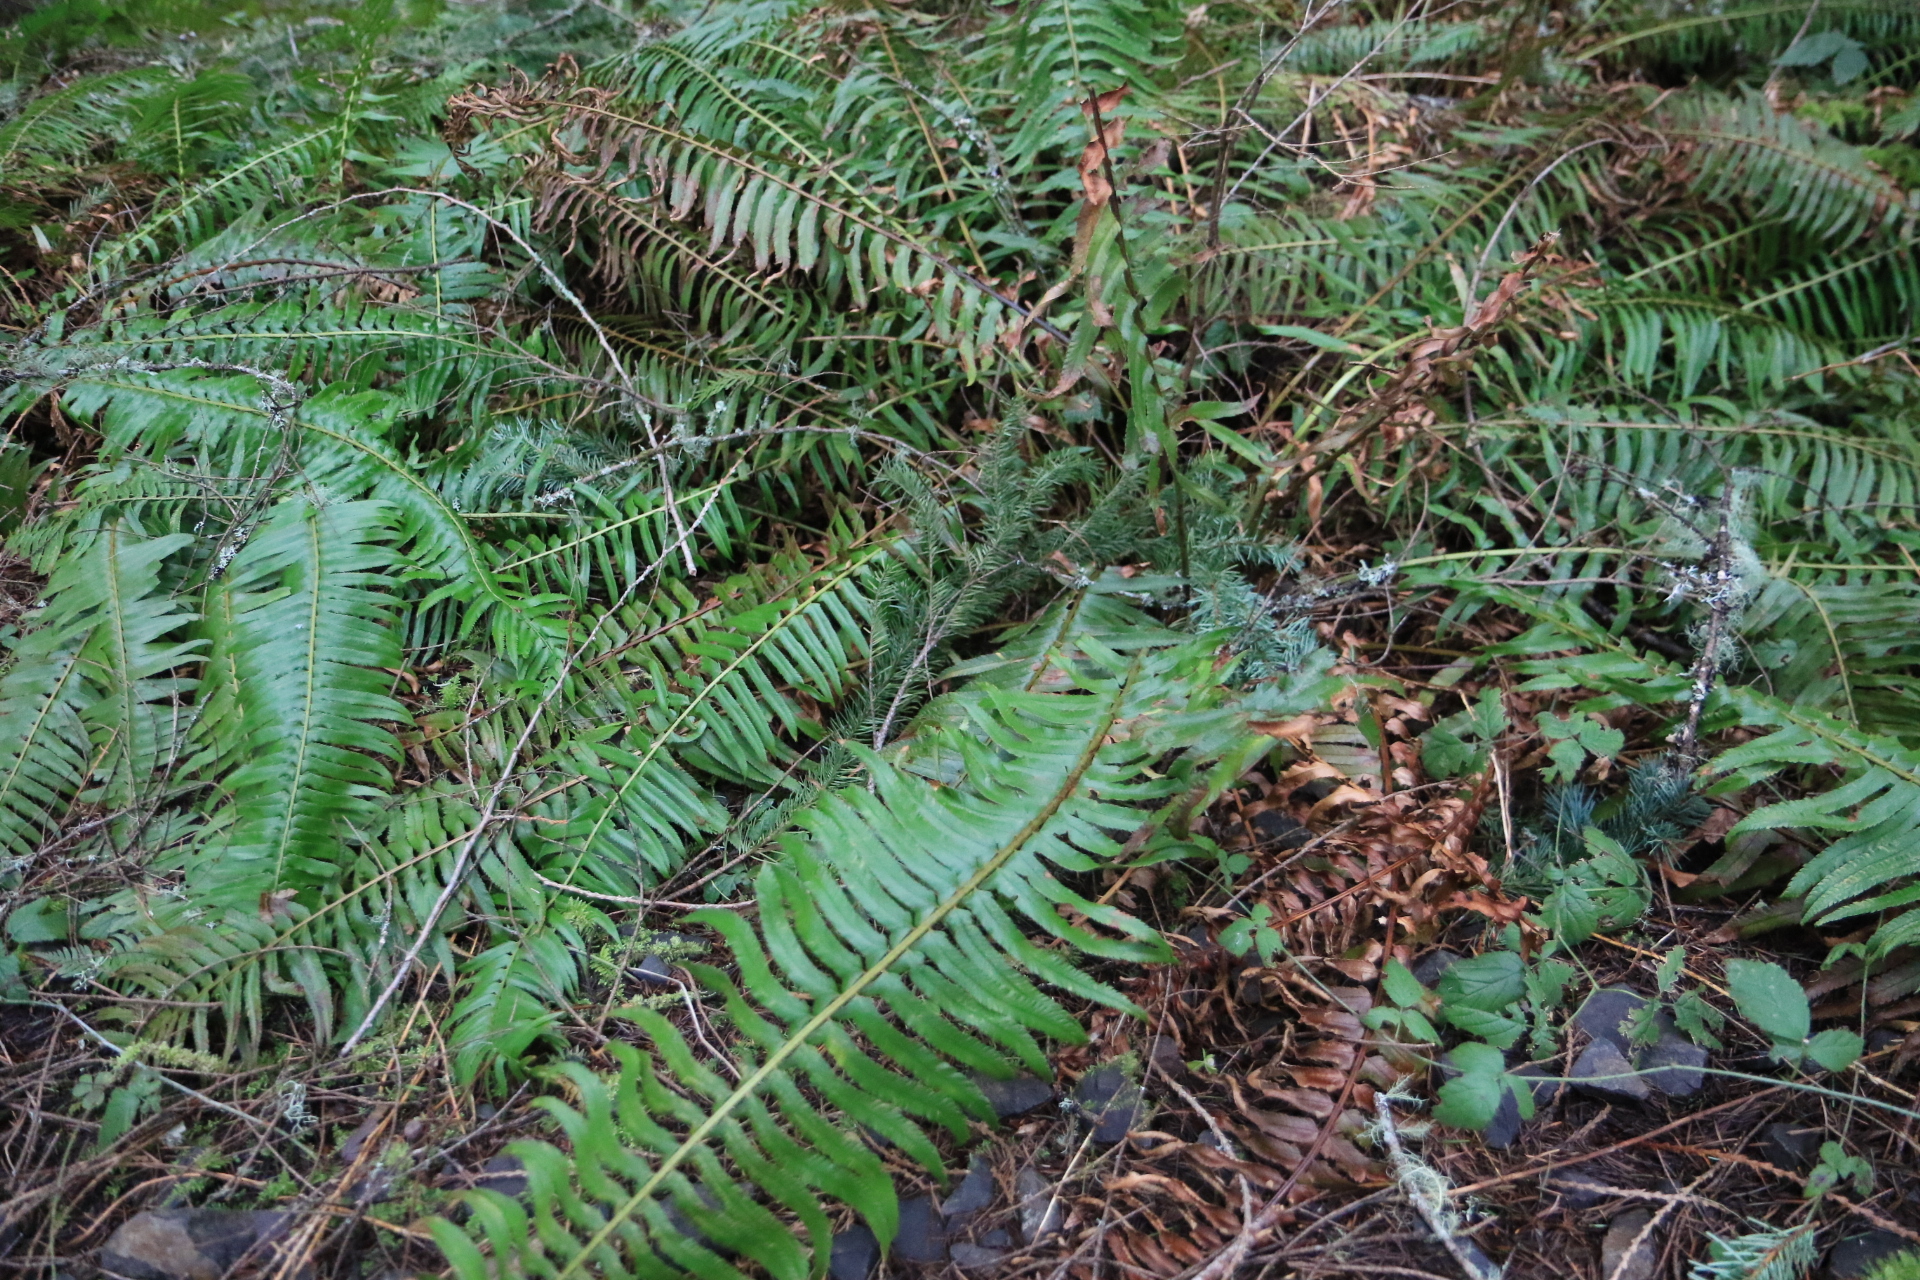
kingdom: Plantae
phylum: Tracheophyta
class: Polypodiopsida
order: Polypodiales
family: Dryopteridaceae
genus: Polystichum
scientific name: Polystichum munitum
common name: Western sword-fern
